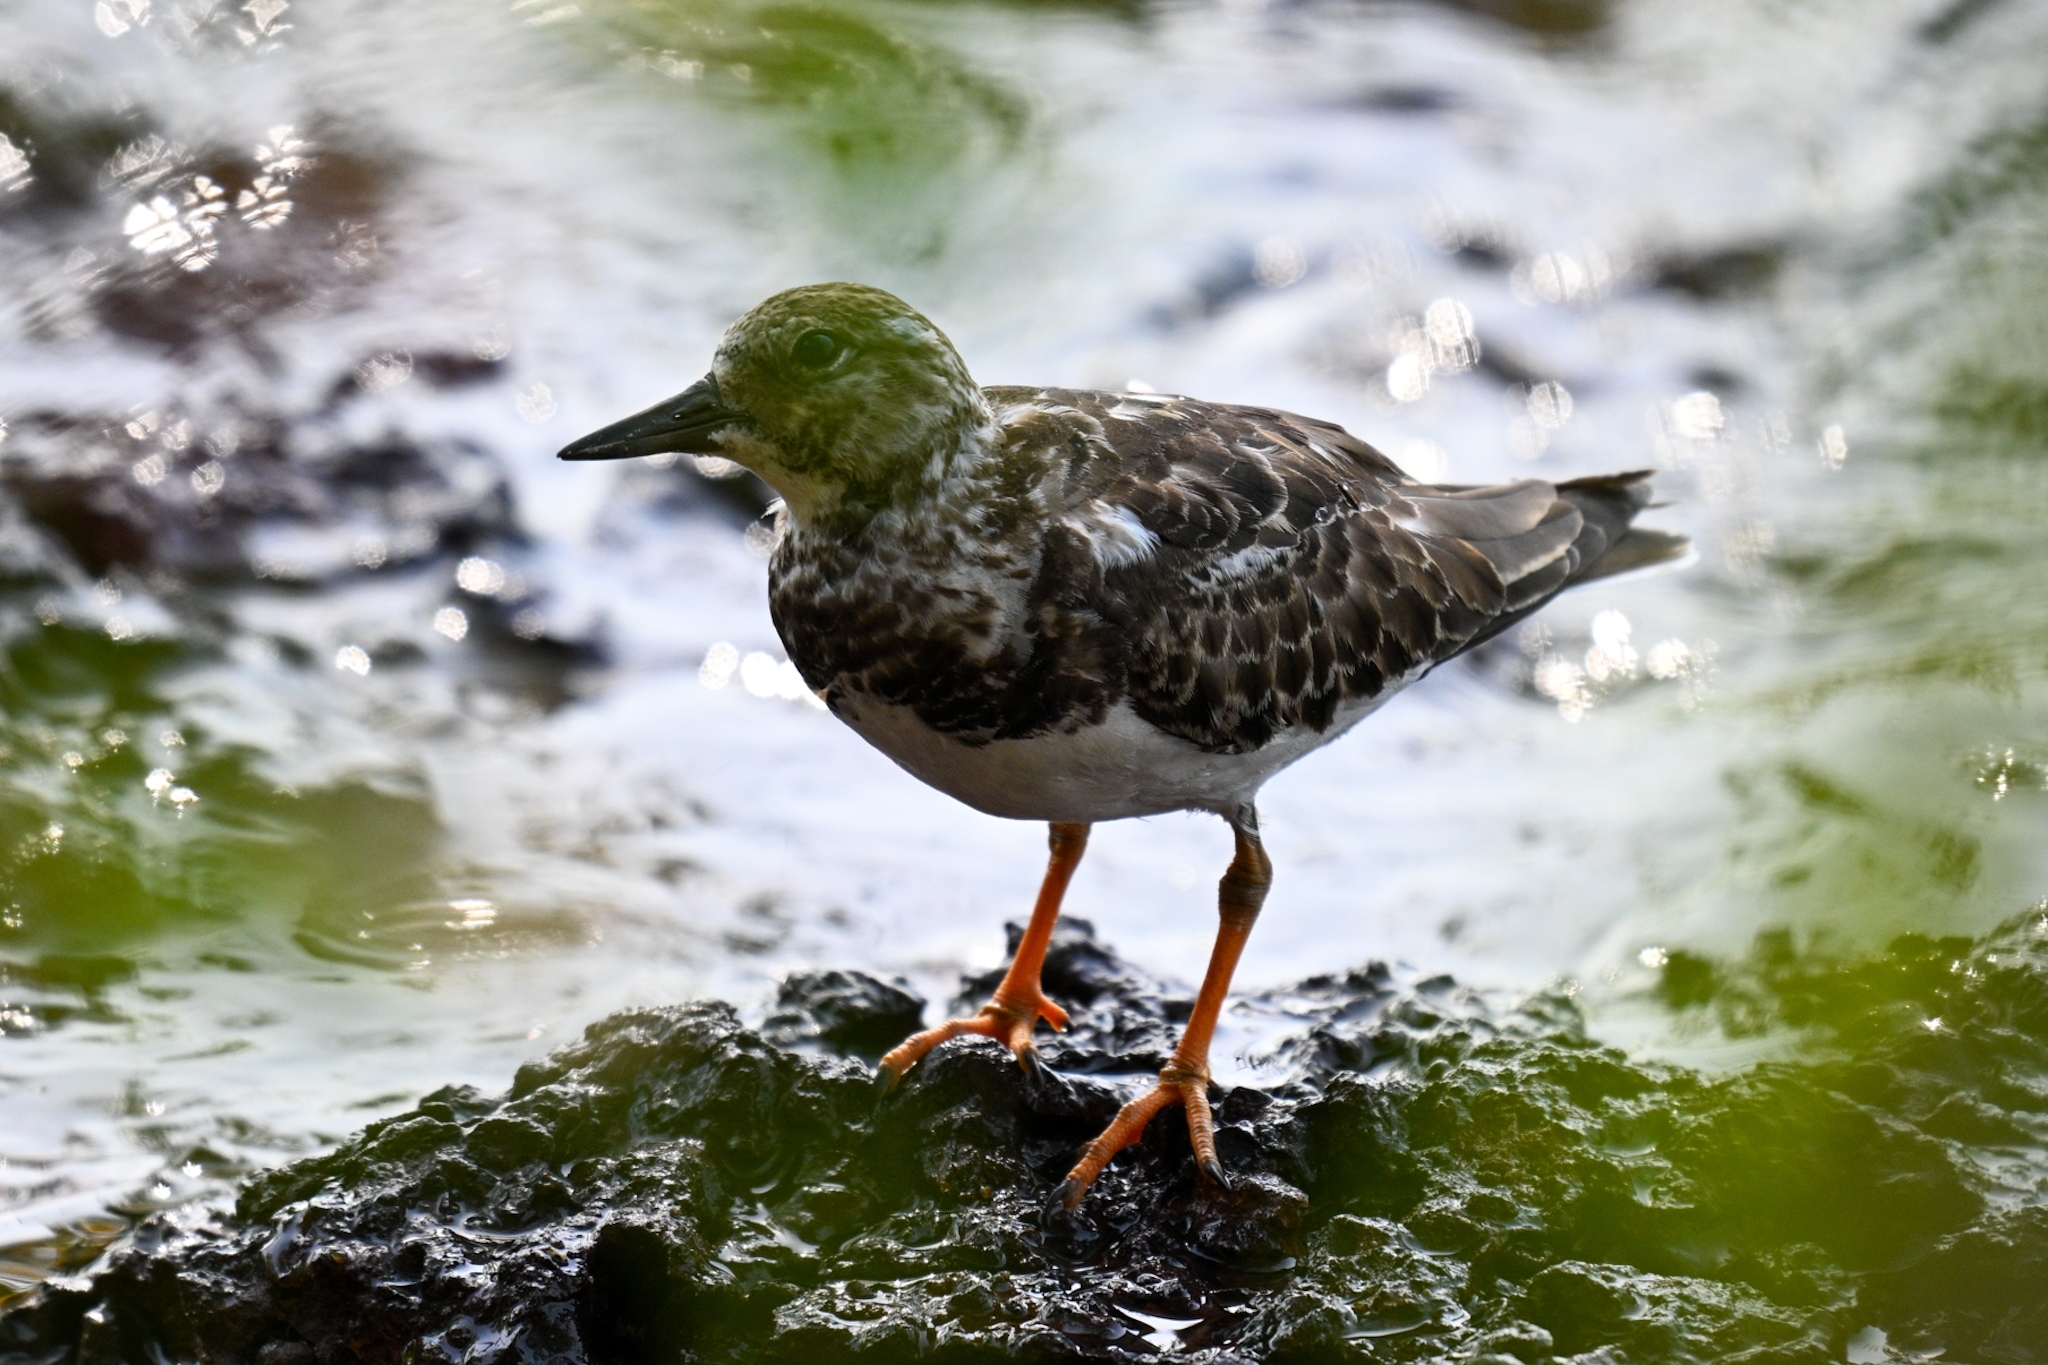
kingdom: Animalia
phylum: Chordata
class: Aves
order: Charadriiformes
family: Scolopacidae
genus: Arenaria
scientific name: Arenaria interpres
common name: Ruddy turnstone
